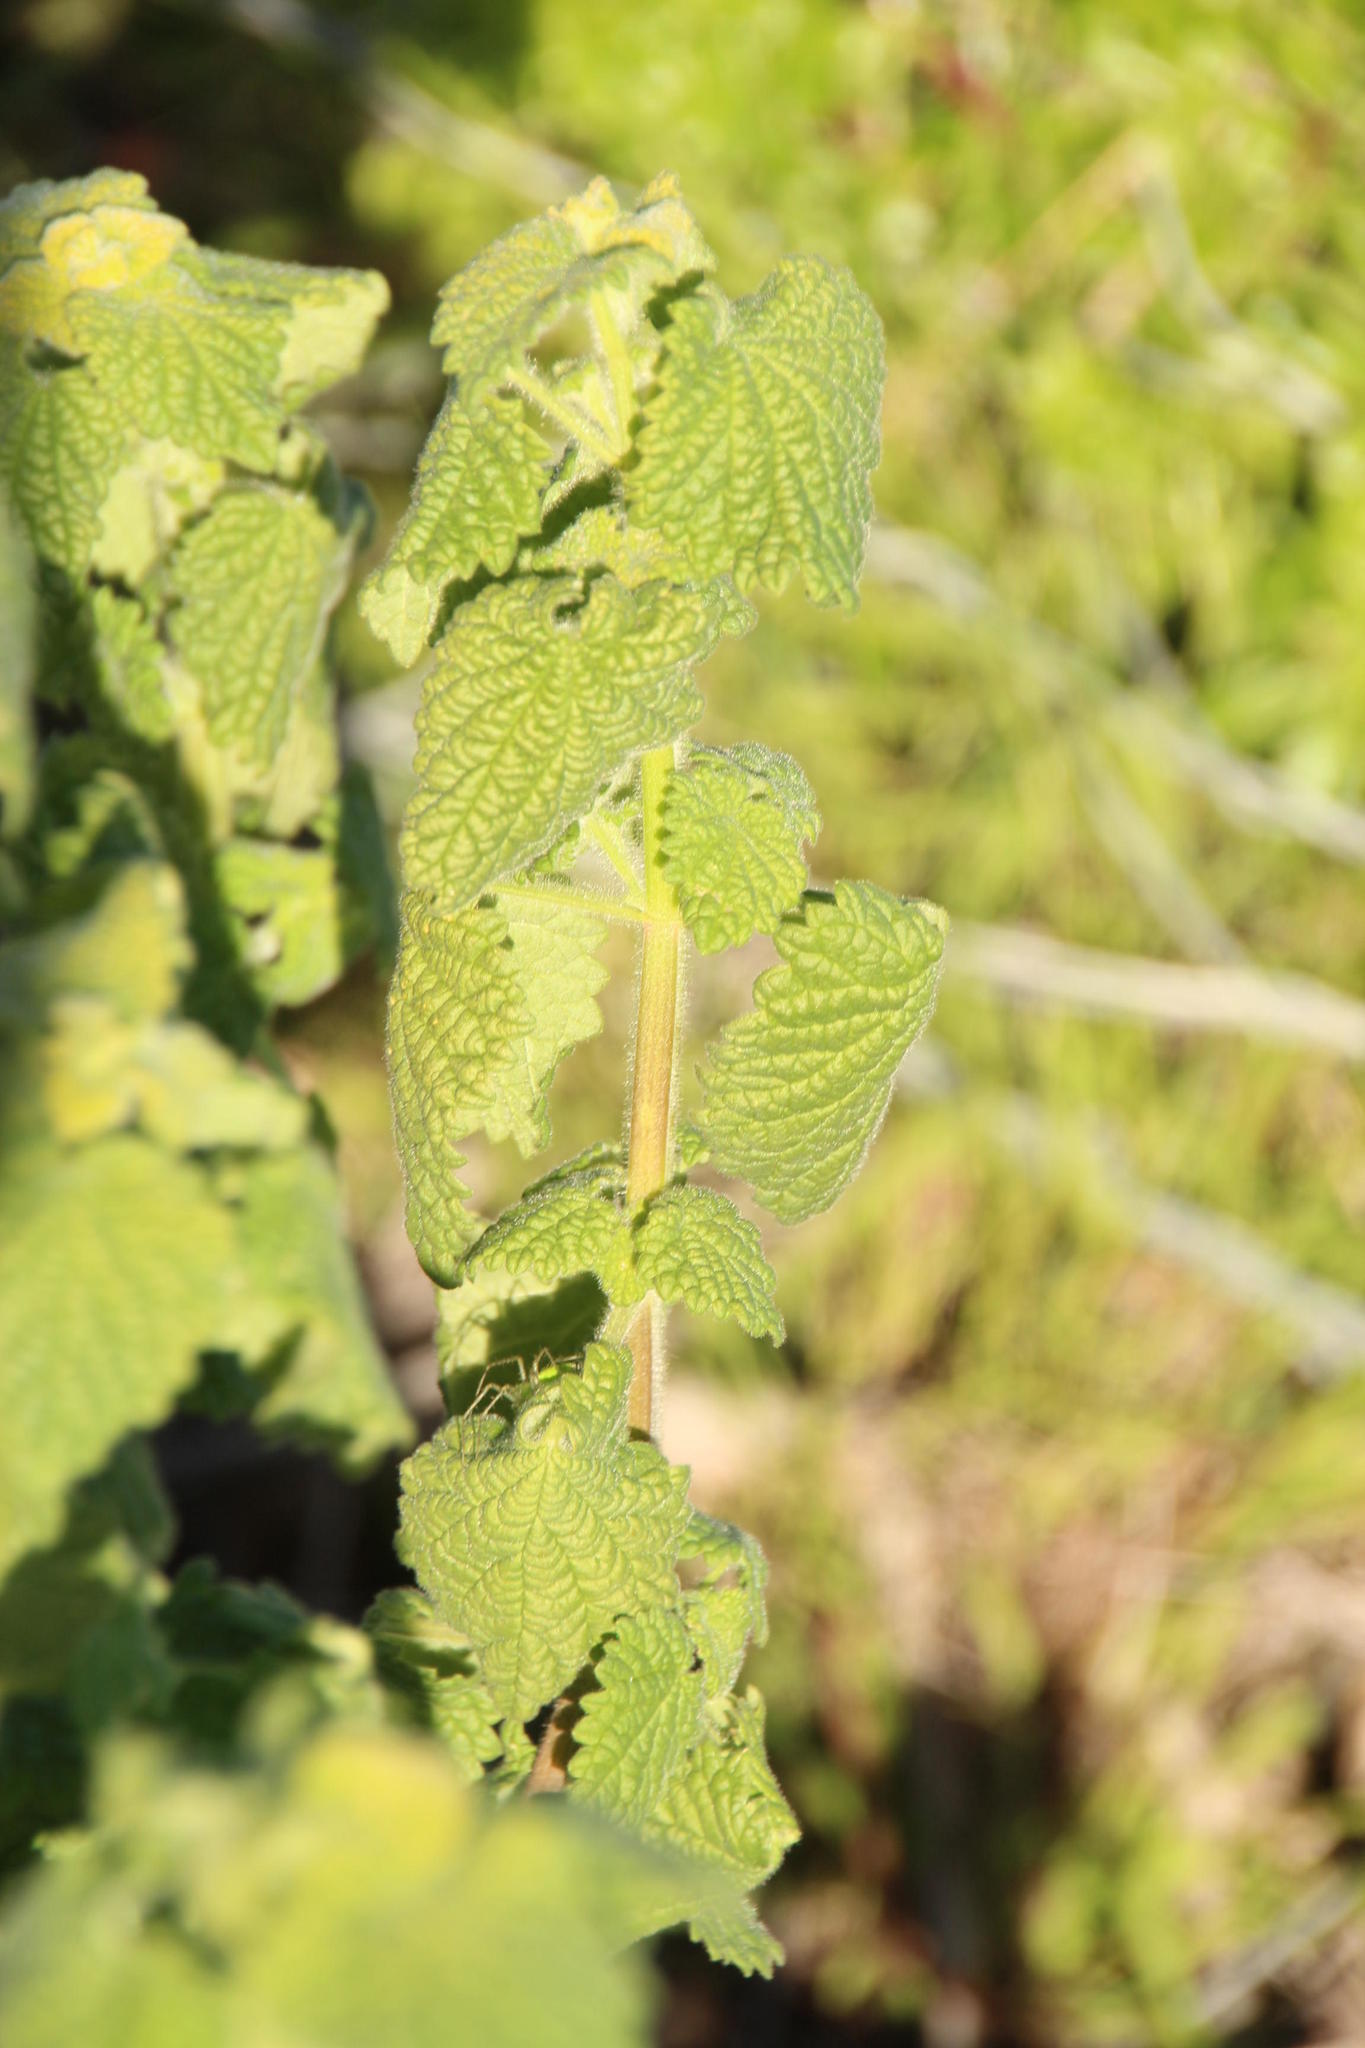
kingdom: Plantae
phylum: Tracheophyta
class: Magnoliopsida
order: Lamiales
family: Lamiaceae
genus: Pseudodictamnus
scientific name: Pseudodictamnus africanus
